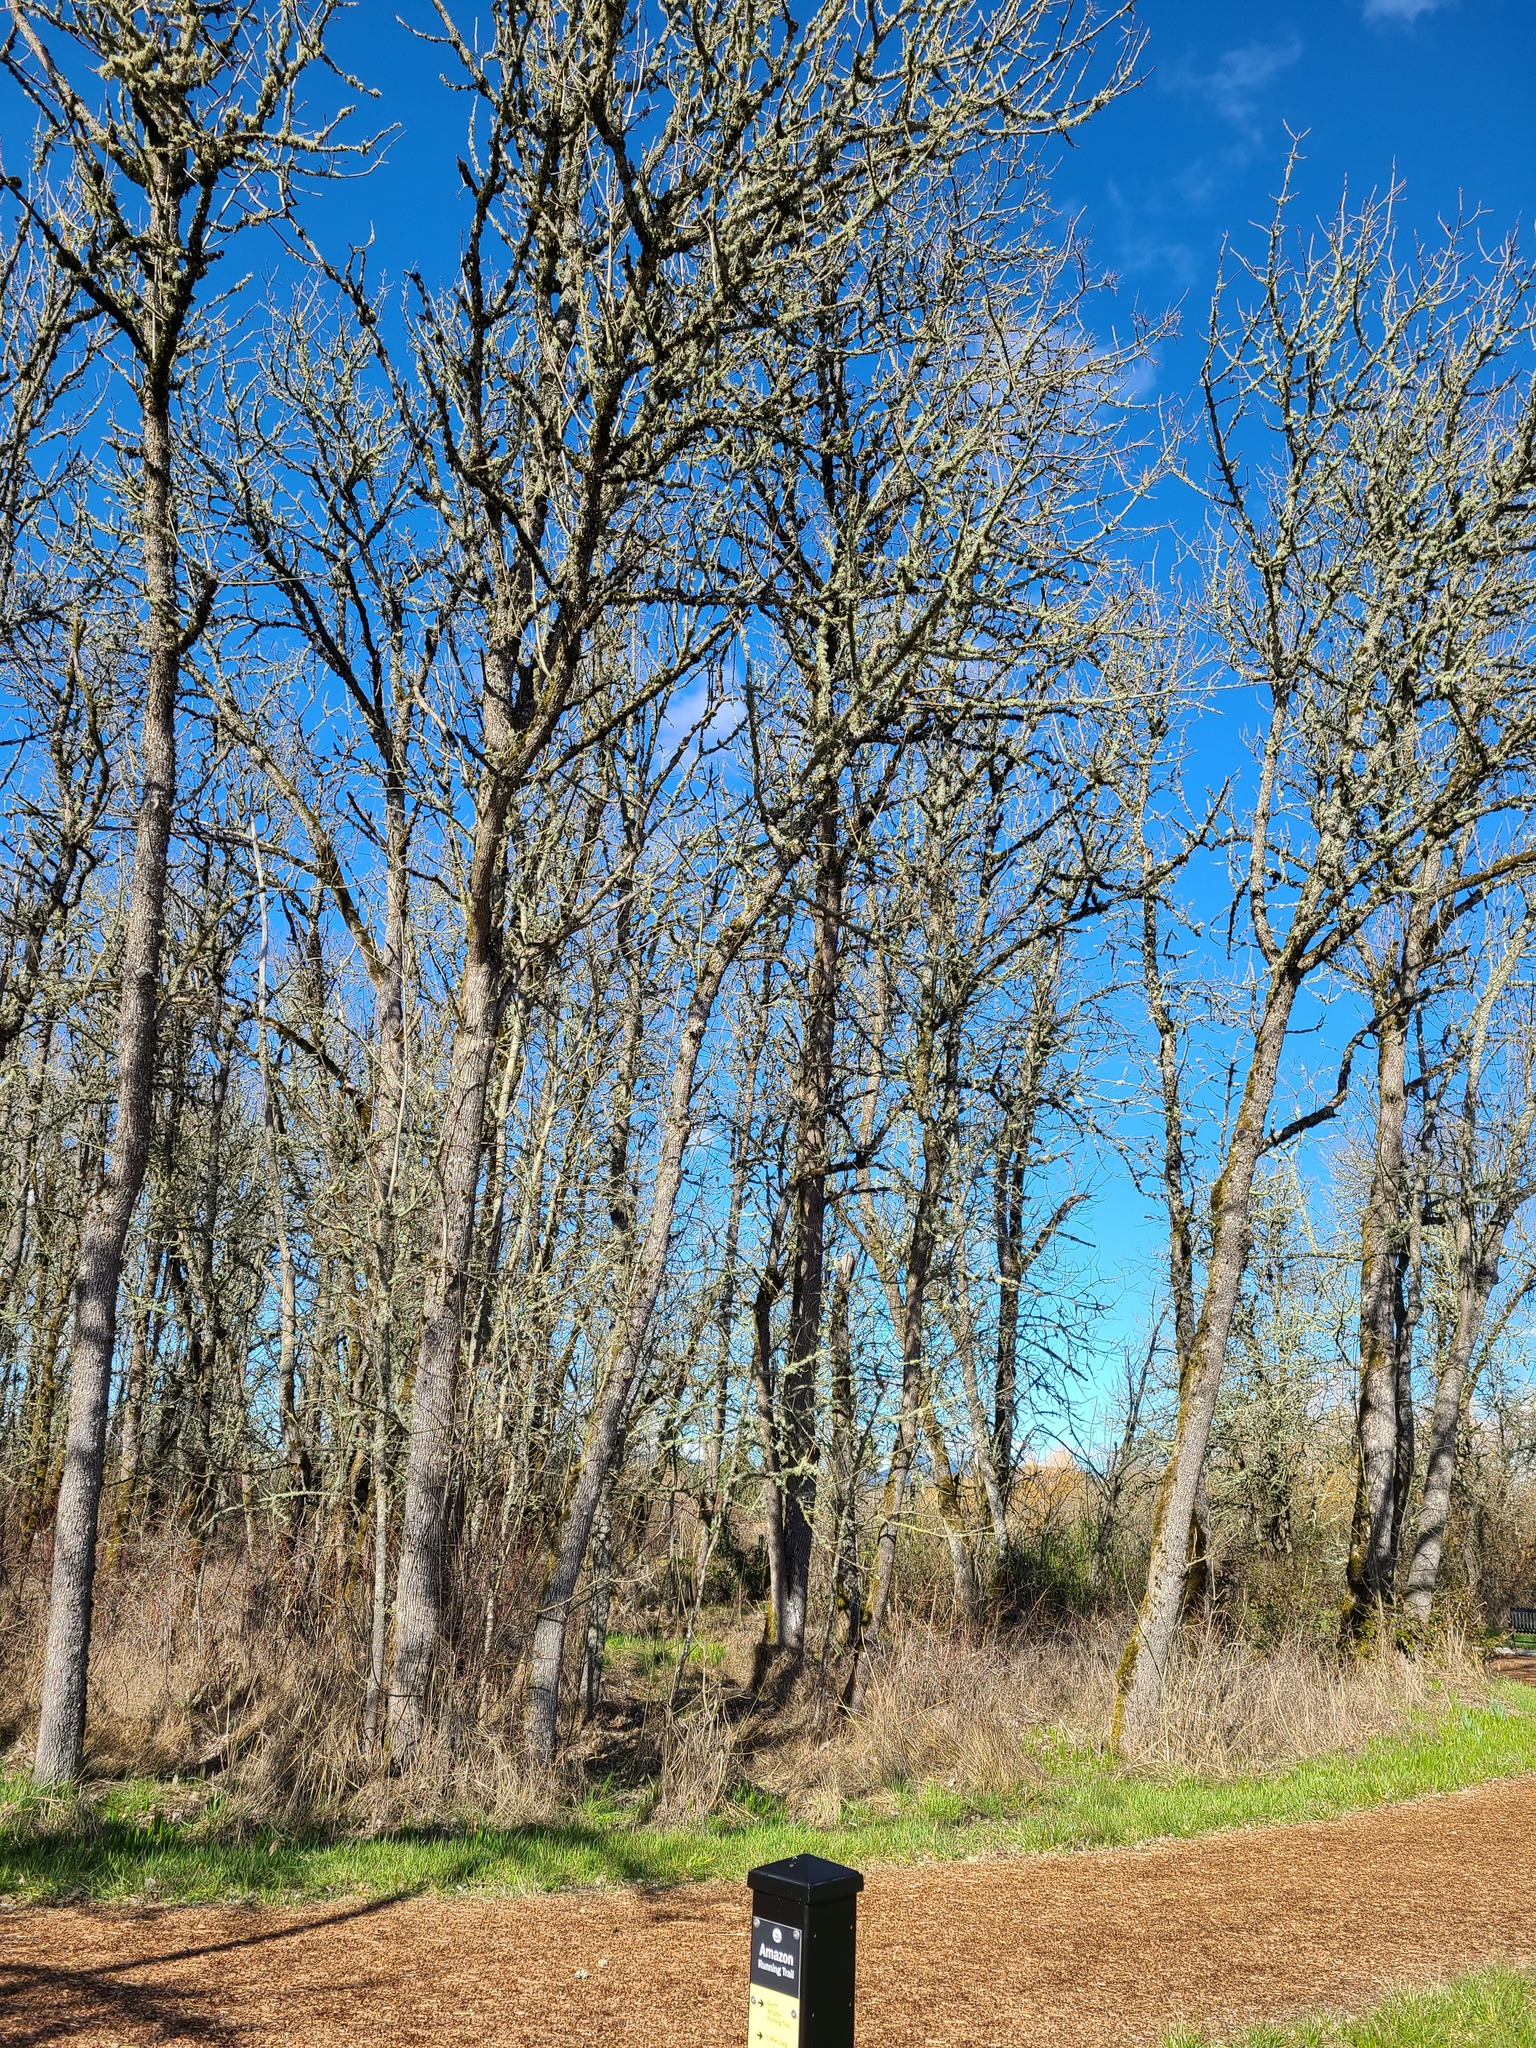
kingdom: Plantae
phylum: Tracheophyta
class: Magnoliopsida
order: Lamiales
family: Oleaceae
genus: Fraxinus
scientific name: Fraxinus latifolia
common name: Oregon ash
